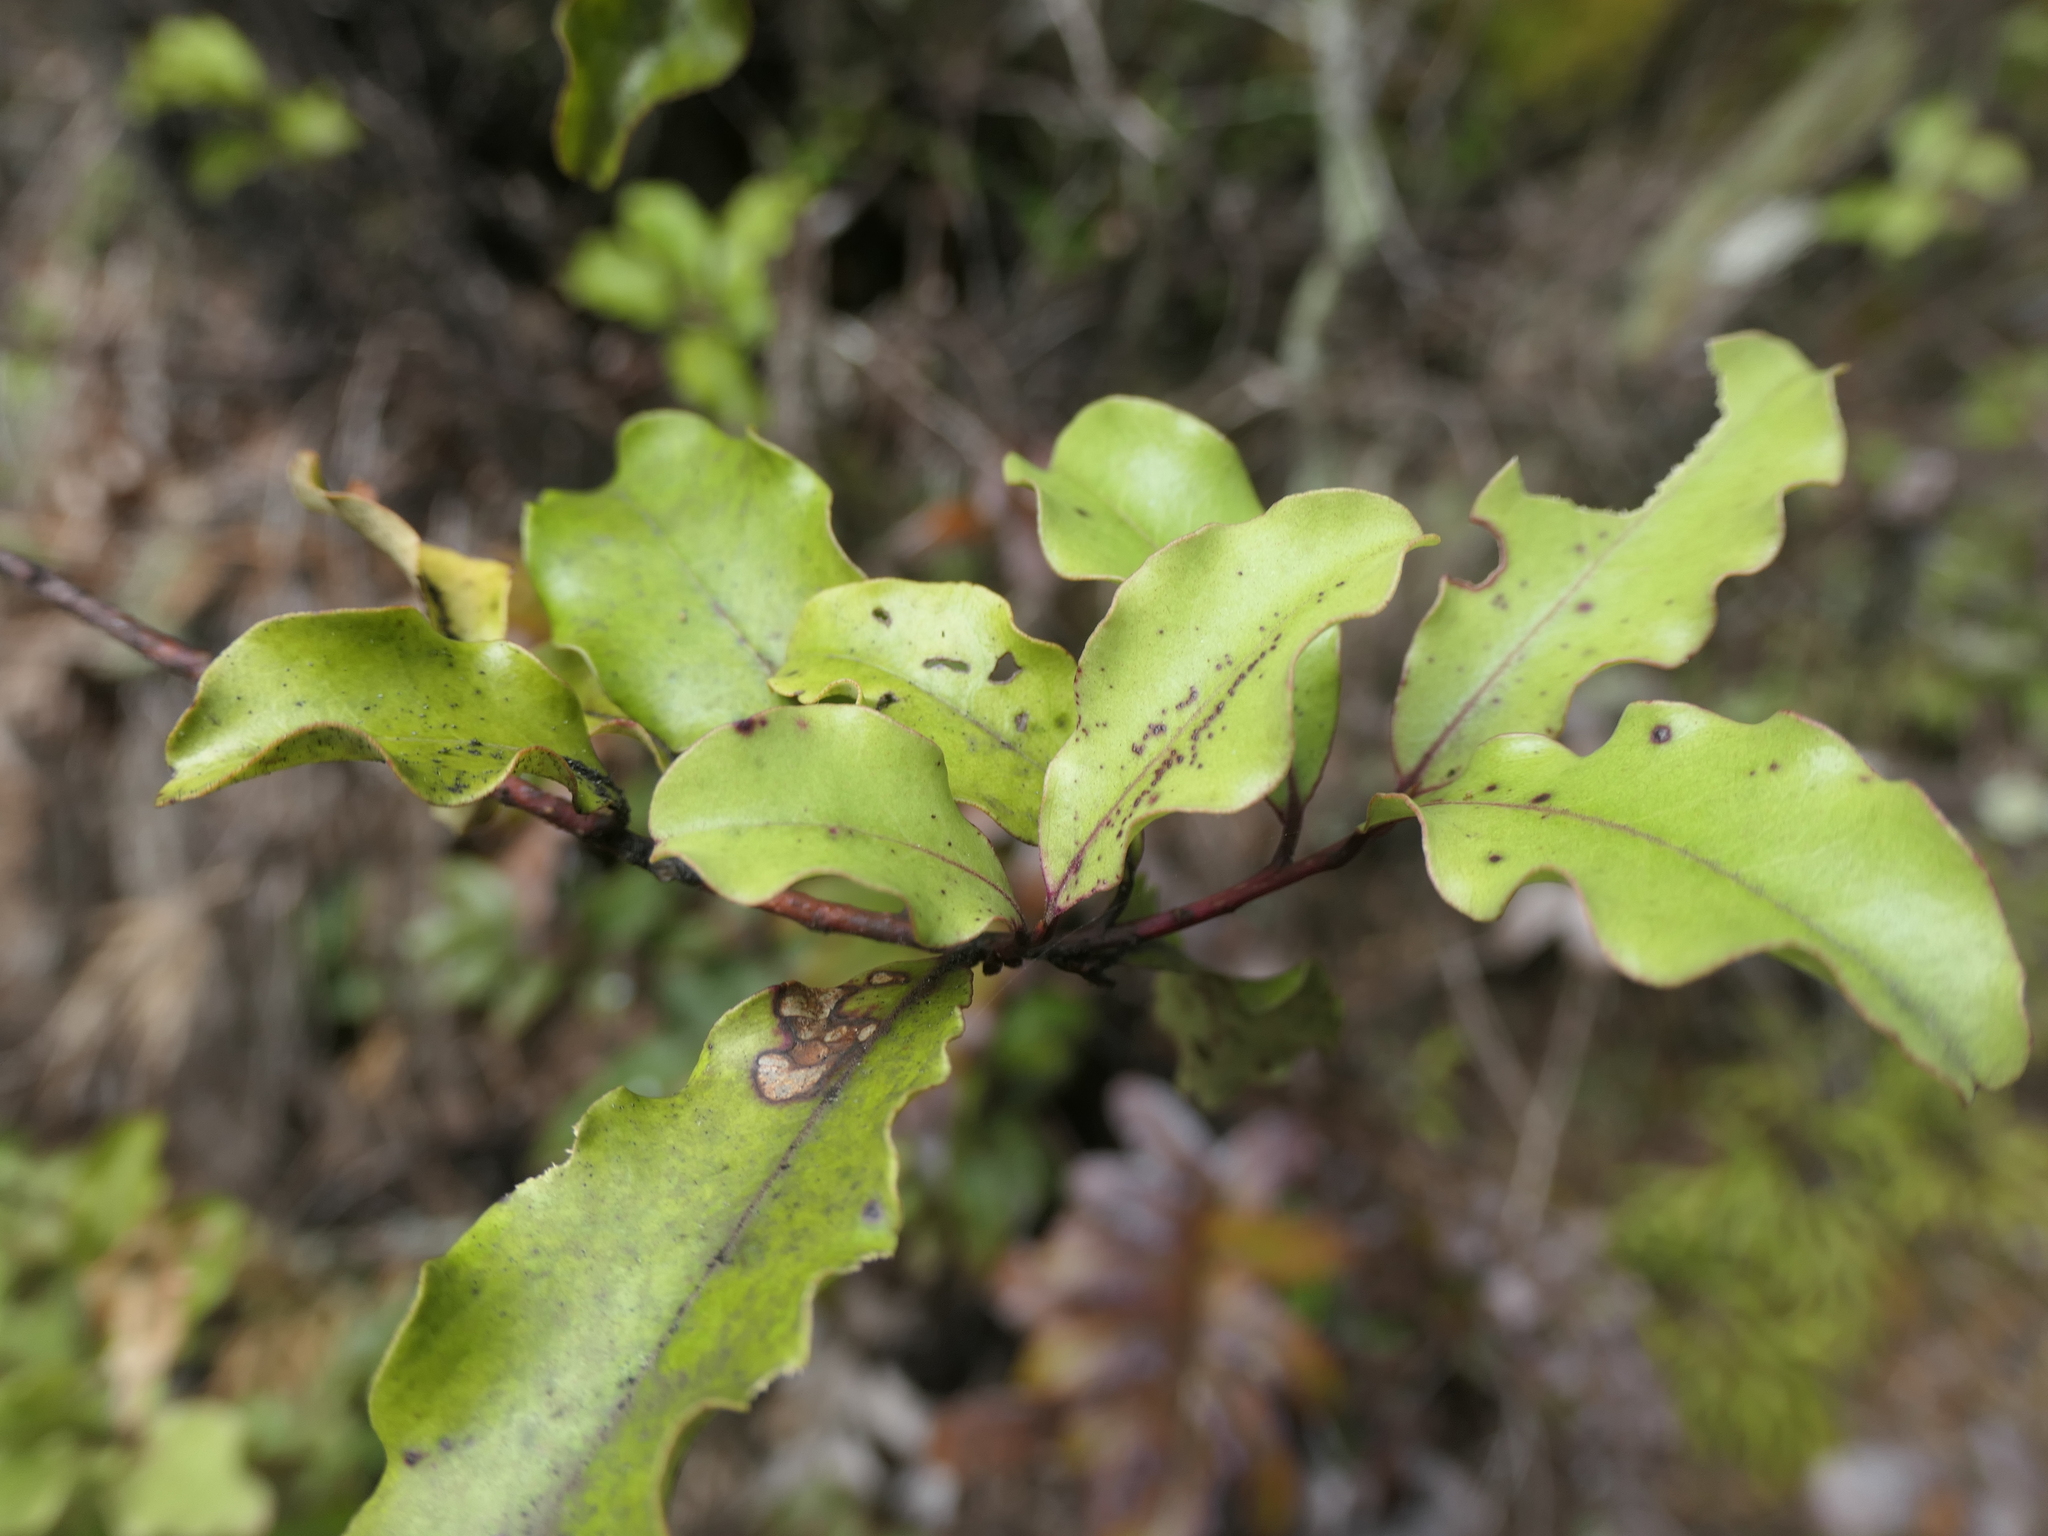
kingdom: Plantae
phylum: Tracheophyta
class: Magnoliopsida
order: Ericales
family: Primulaceae
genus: Myrsine
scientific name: Myrsine australis
